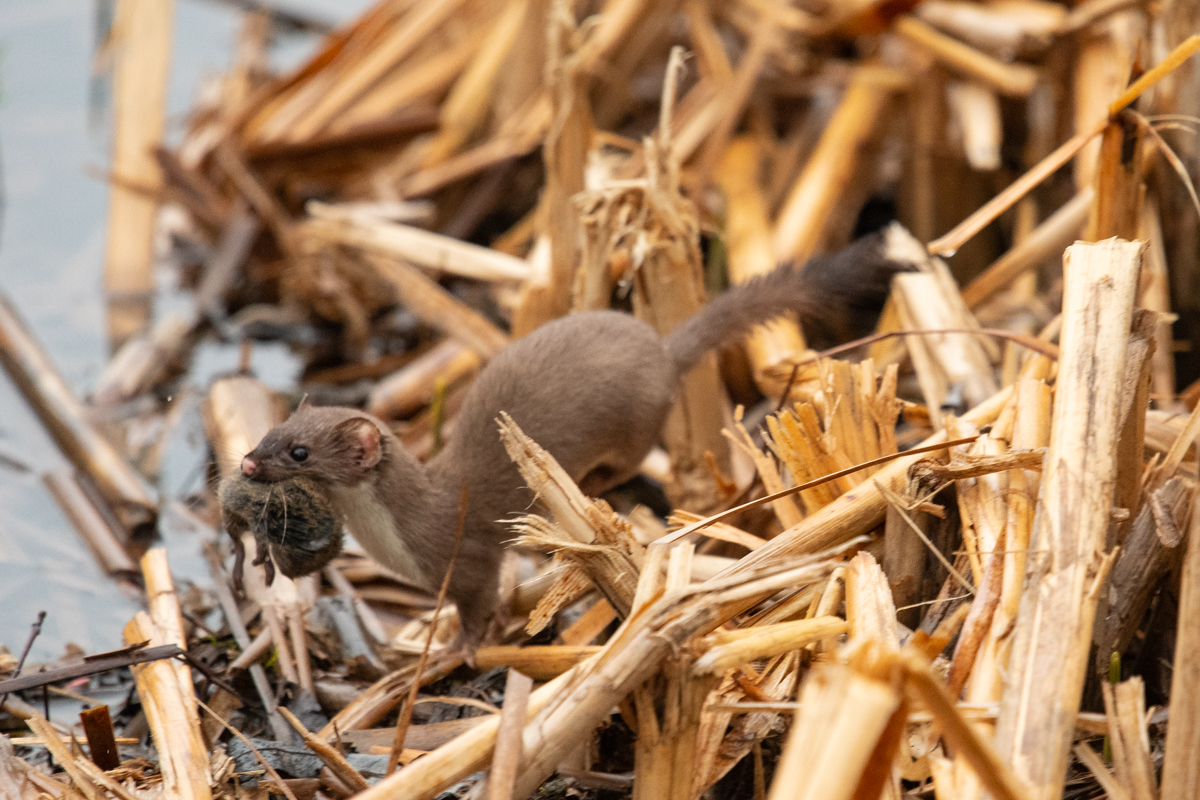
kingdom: Animalia
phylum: Chordata
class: Mammalia
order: Carnivora
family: Mustelidae
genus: Mustela
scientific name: Mustela erminea
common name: Stoat
